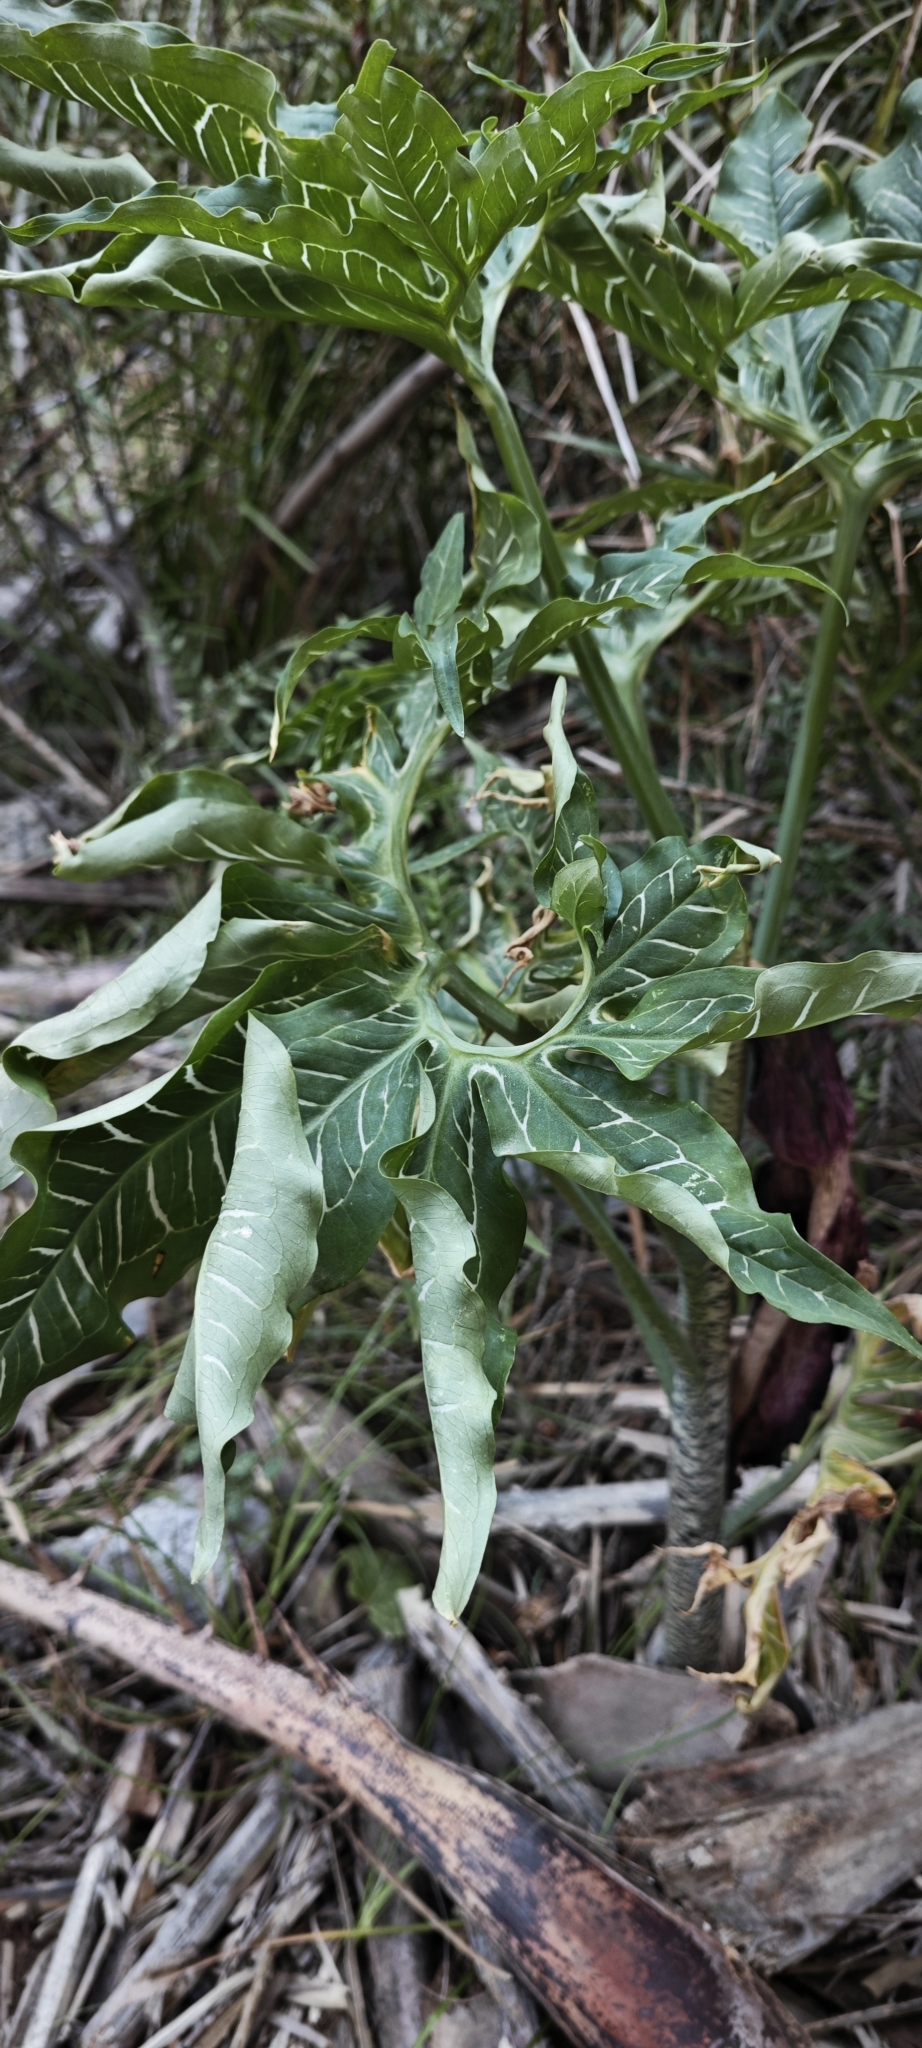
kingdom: Plantae
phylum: Tracheophyta
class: Liliopsida
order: Alismatales
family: Araceae
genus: Dracunculus
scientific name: Dracunculus vulgaris
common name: Dragon arum
